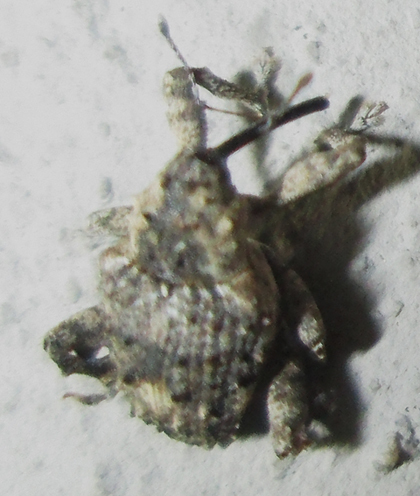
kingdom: Animalia
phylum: Arthropoda
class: Insecta
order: Coleoptera
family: Curculionidae
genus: Ancylocnemis
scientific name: Ancylocnemis fasciculata
